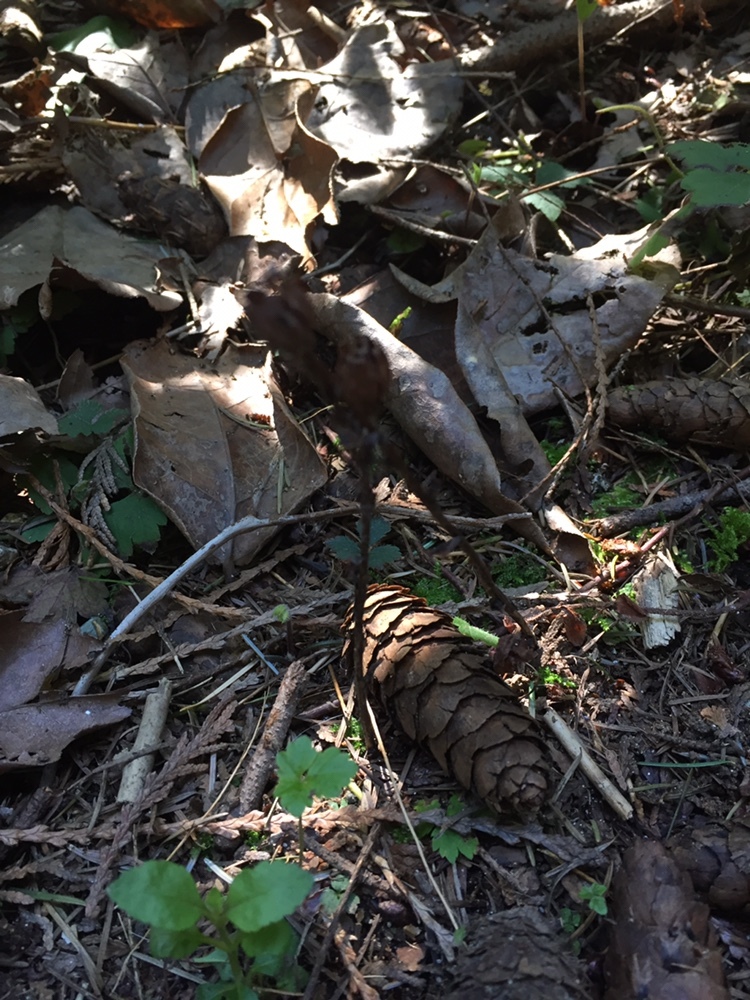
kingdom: Plantae
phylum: Tracheophyta
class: Magnoliopsida
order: Ericales
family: Ericaceae
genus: Monotropa
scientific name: Monotropa uniflora
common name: Convulsion root
